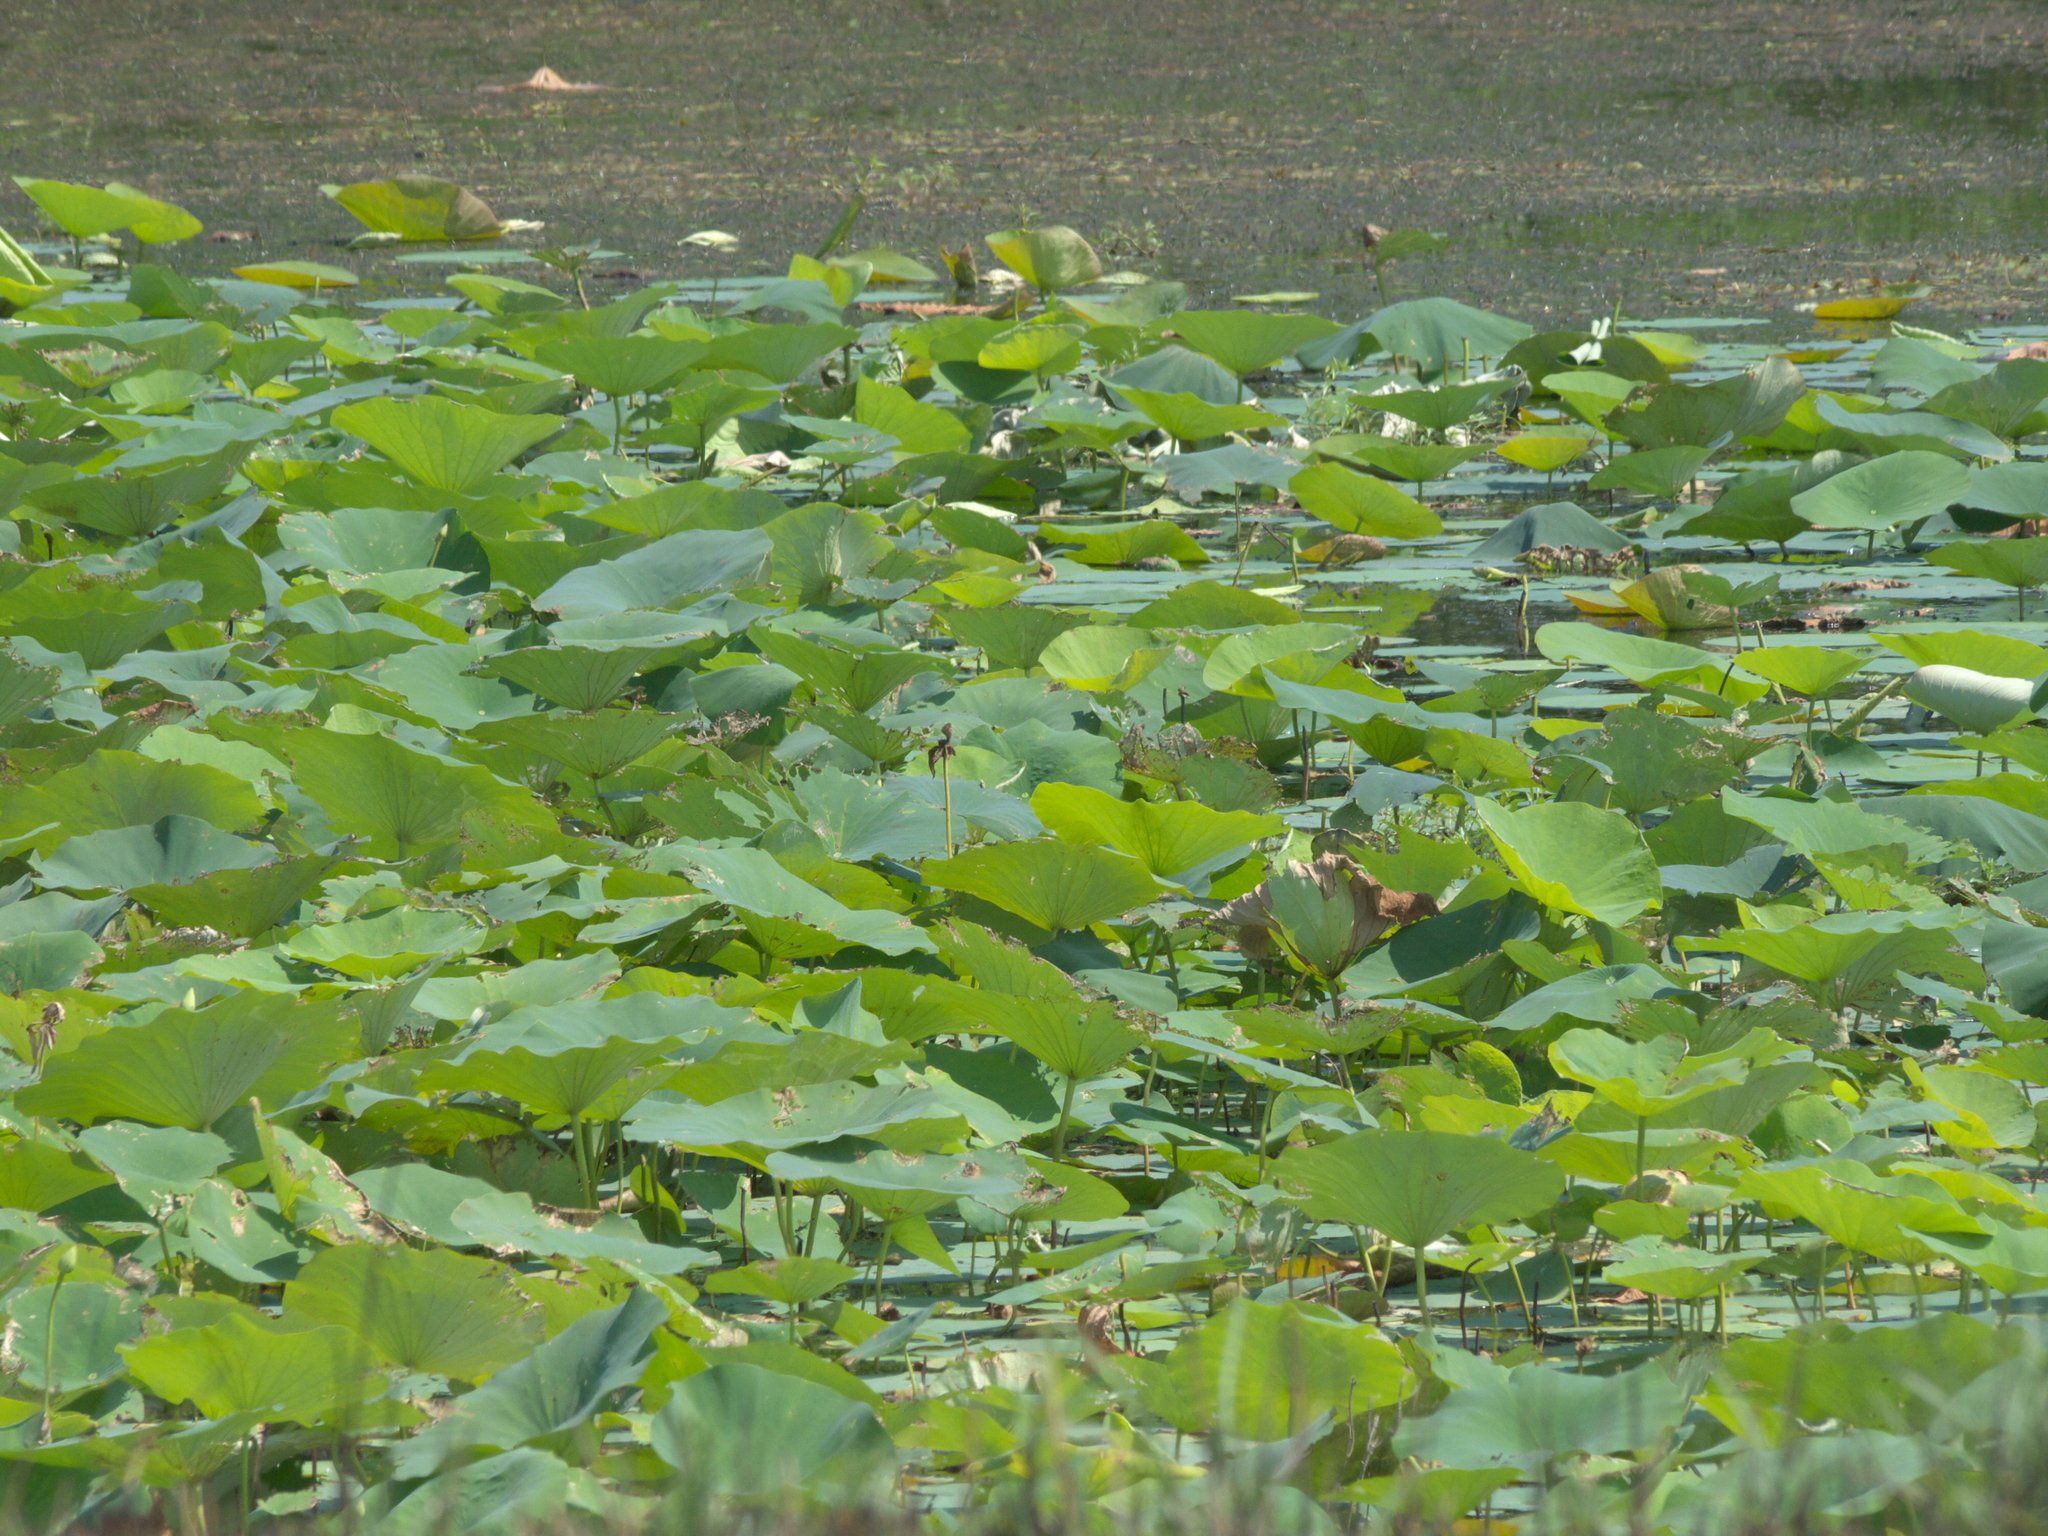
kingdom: Plantae
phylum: Tracheophyta
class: Magnoliopsida
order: Proteales
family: Nelumbonaceae
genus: Nelumbo
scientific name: Nelumbo lutea
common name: American lotus
